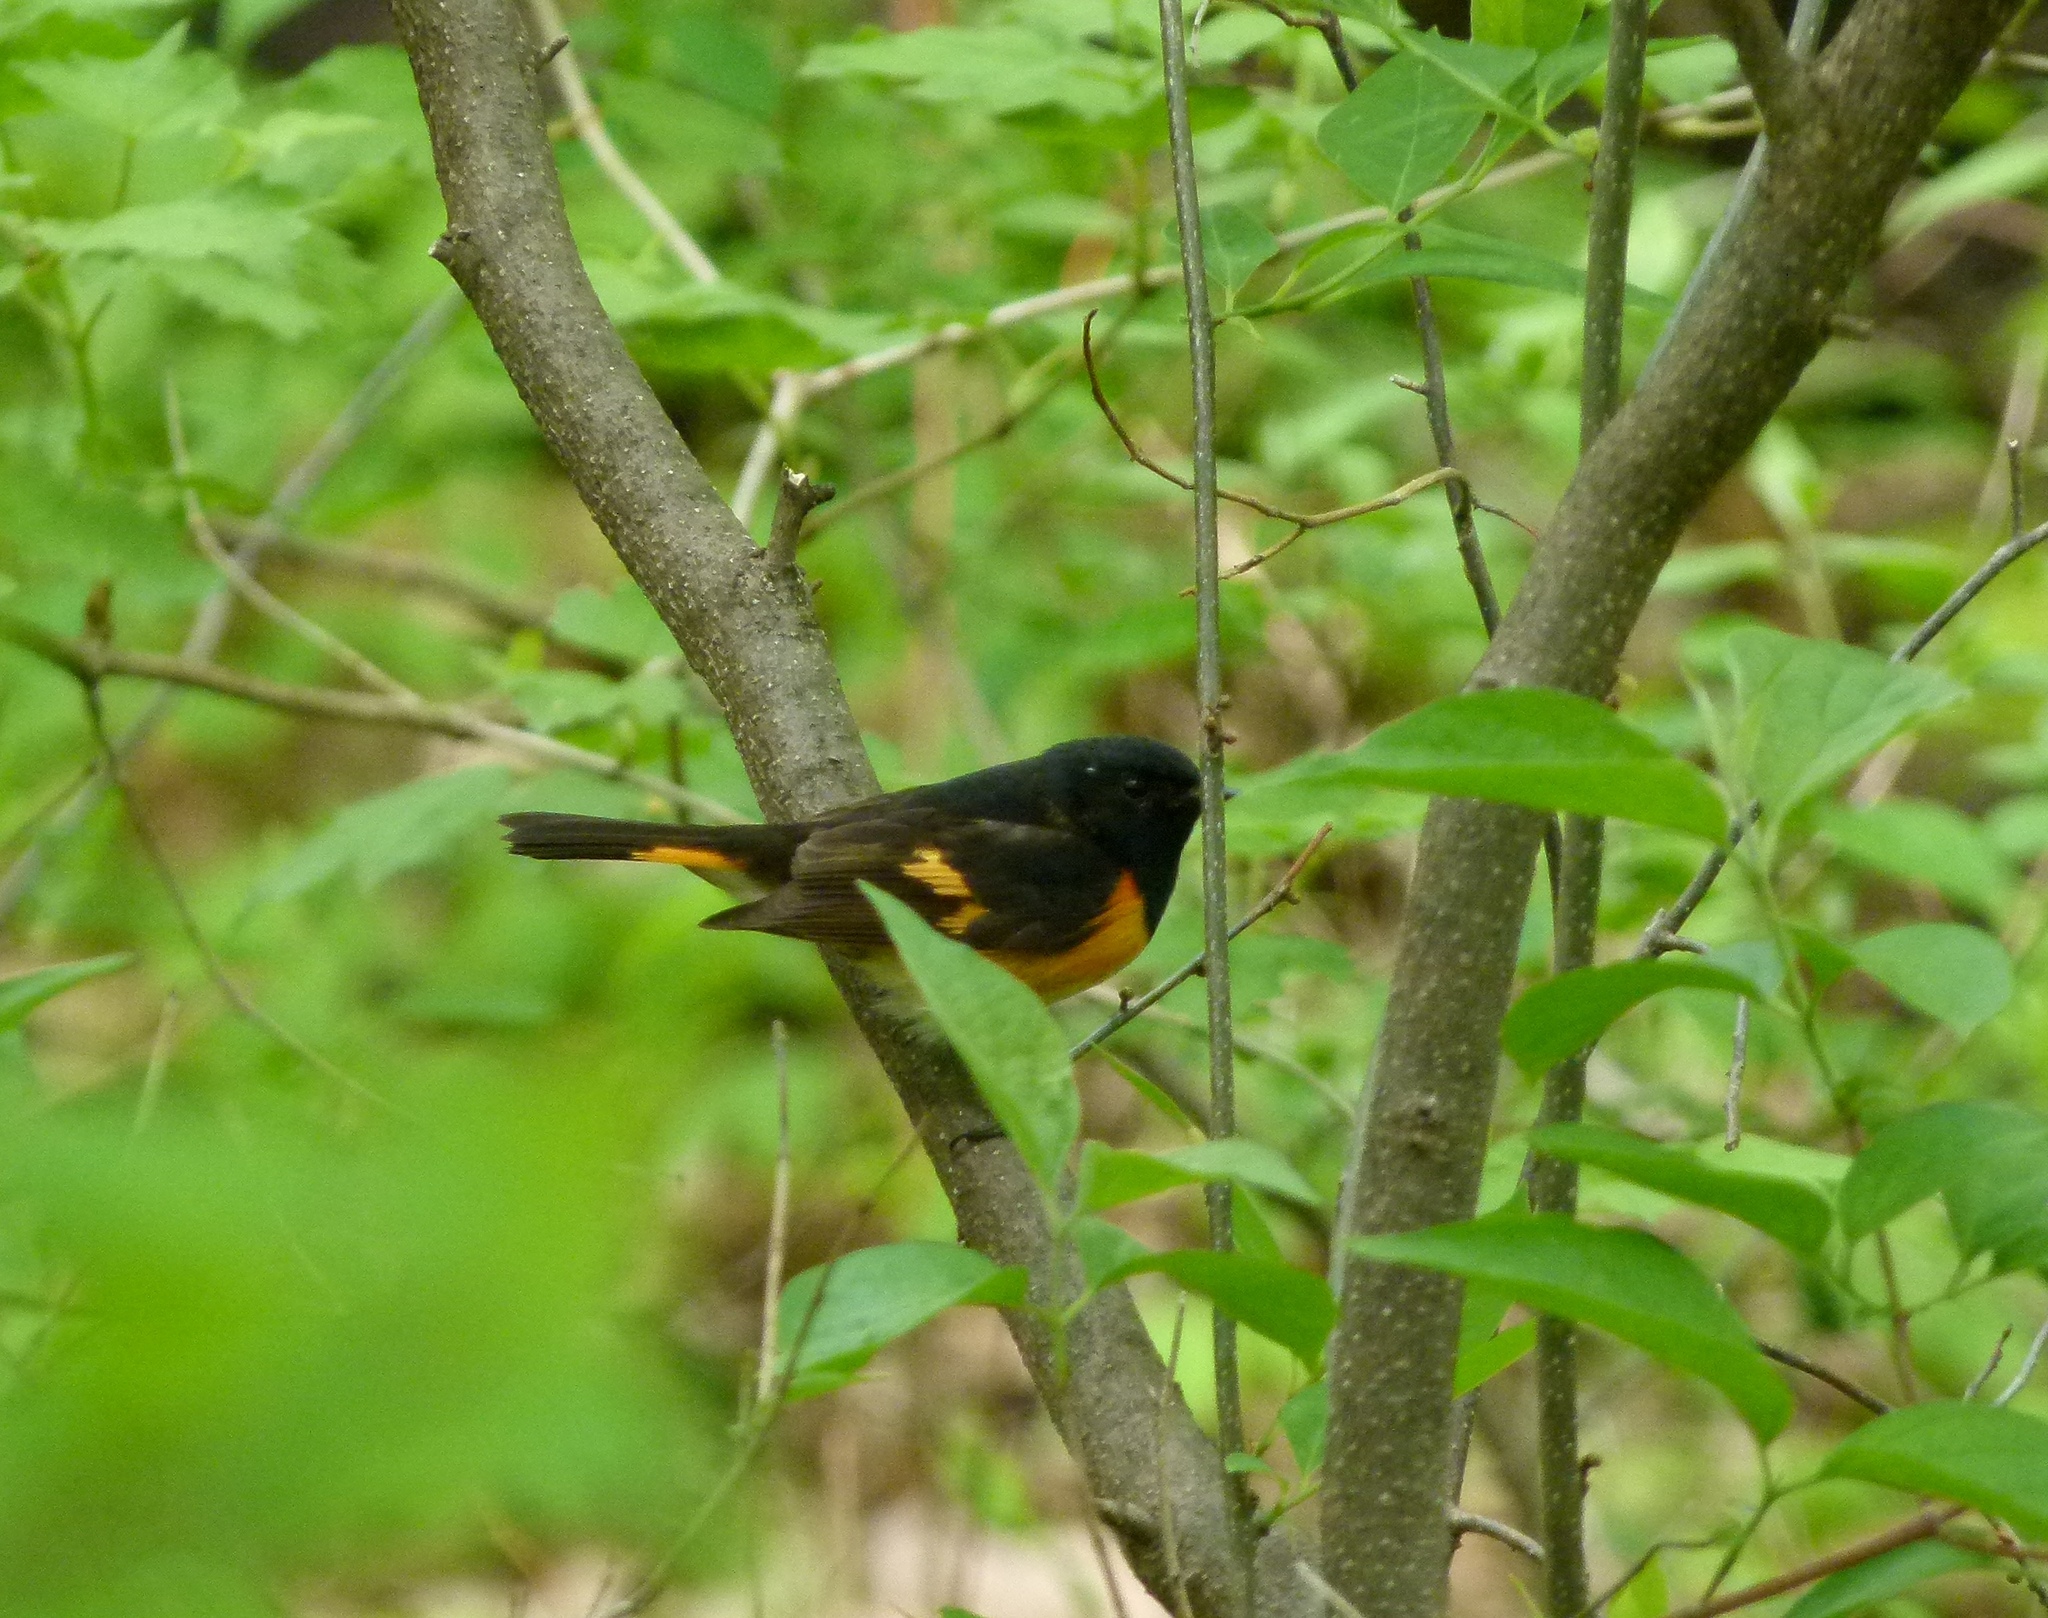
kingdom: Animalia
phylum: Chordata
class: Aves
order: Passeriformes
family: Parulidae
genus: Setophaga
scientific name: Setophaga ruticilla
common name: American redstart
